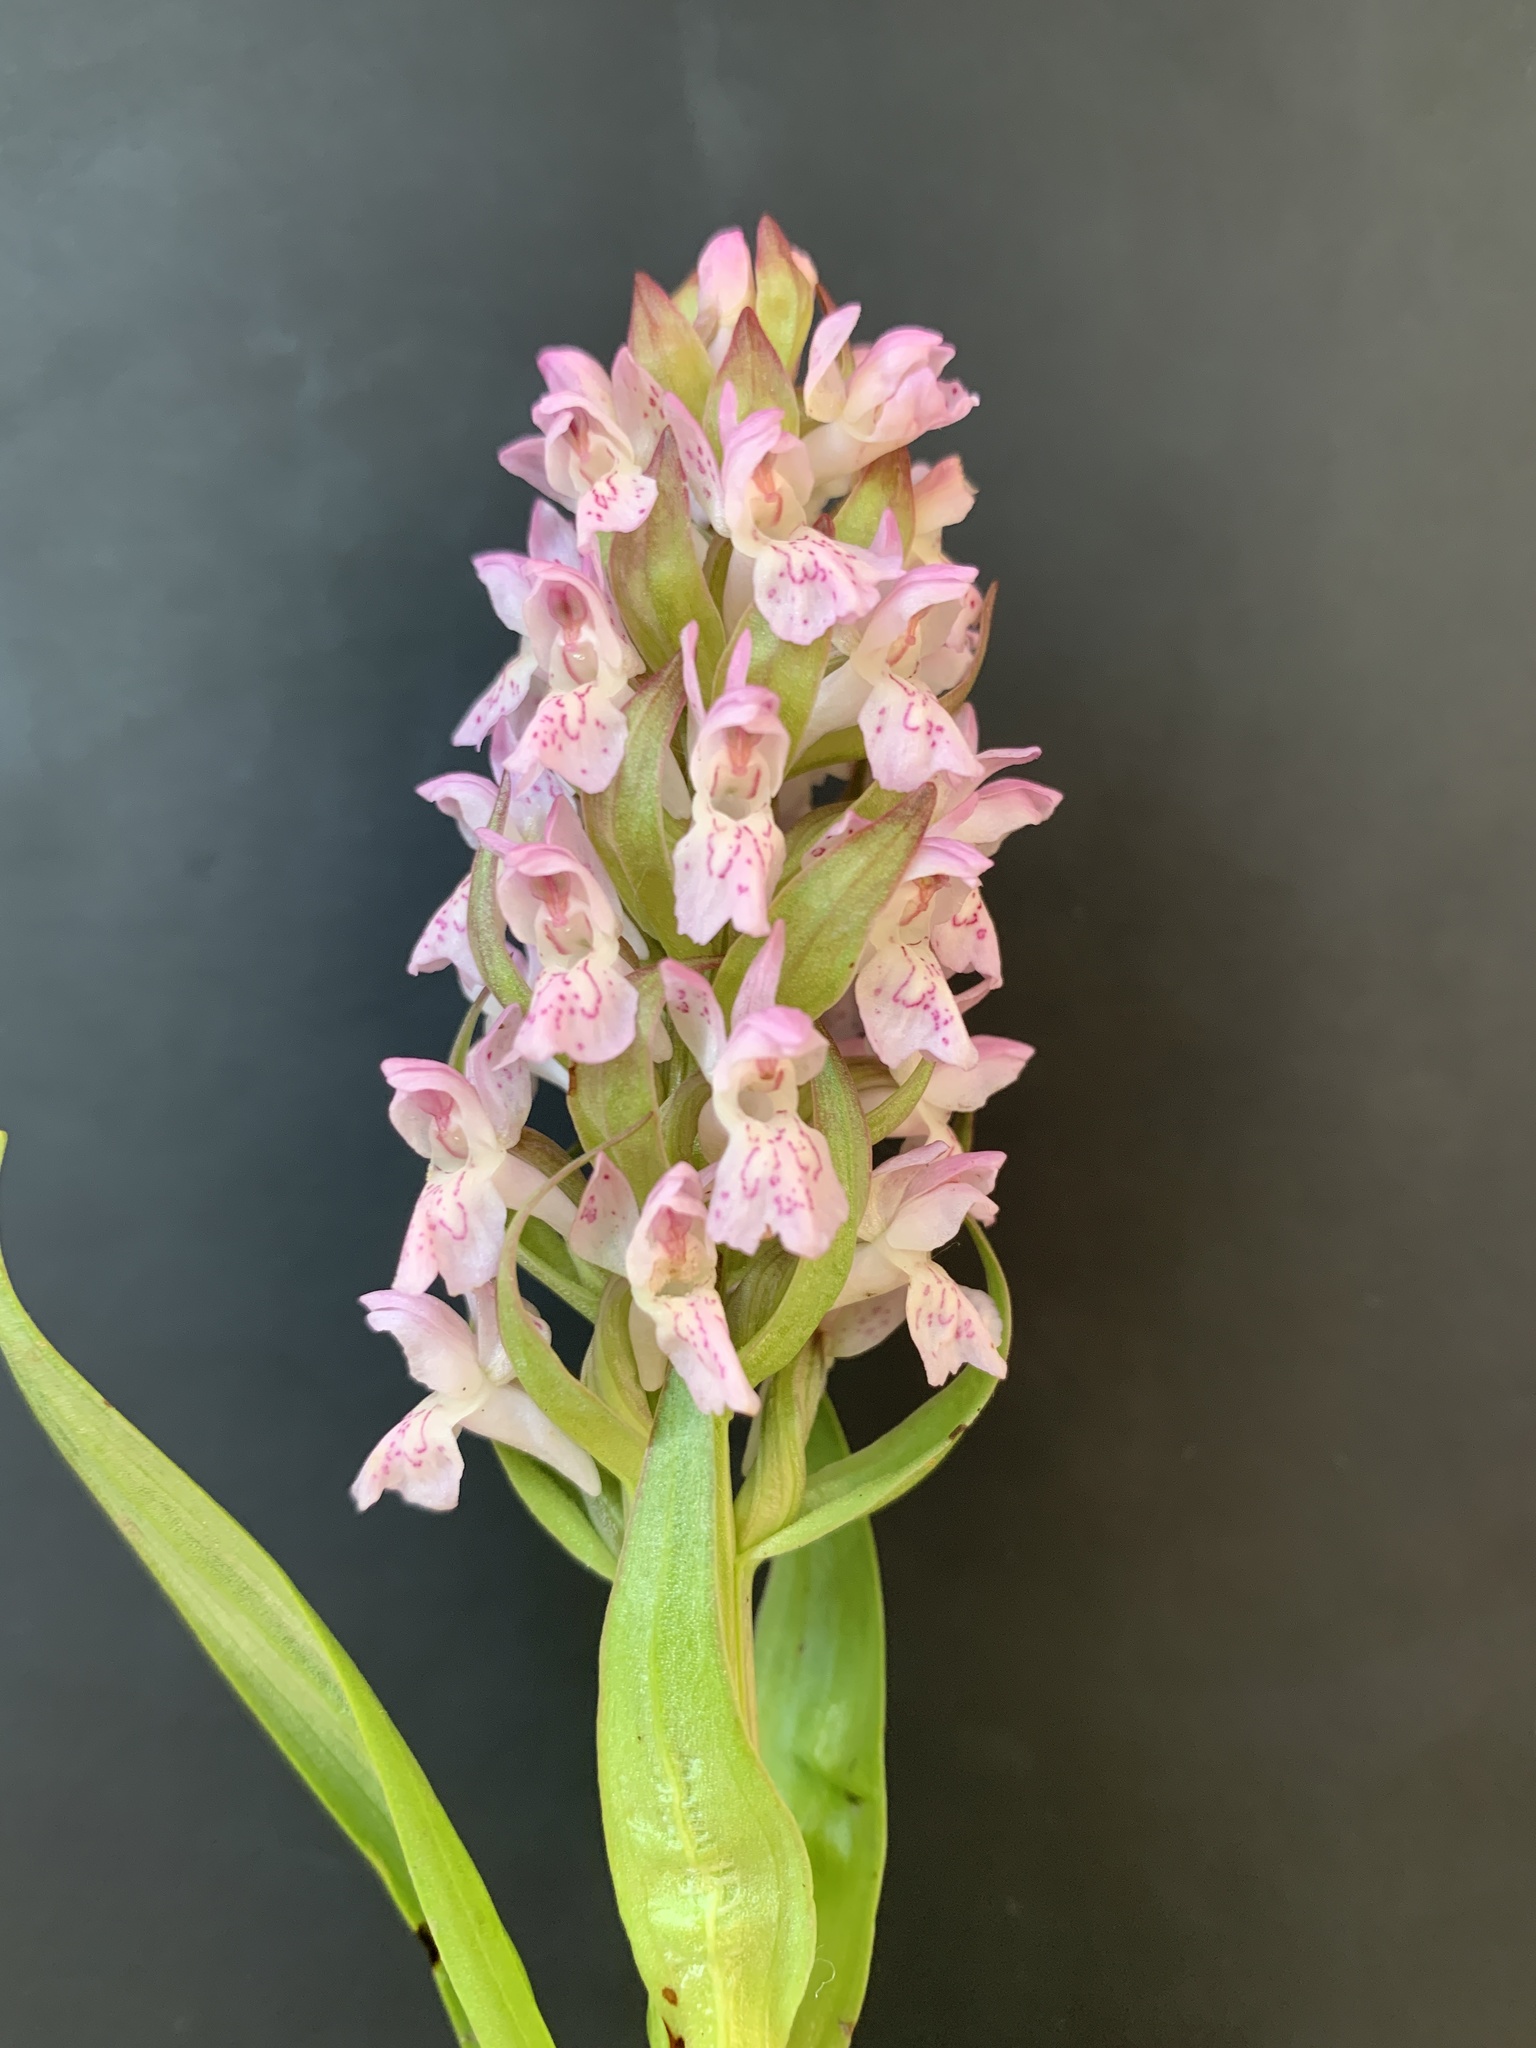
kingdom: Plantae
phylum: Tracheophyta
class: Liliopsida
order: Asparagales
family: Orchidaceae
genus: Dactylorhiza
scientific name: Dactylorhiza incarnata
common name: Early marsh-orchid
